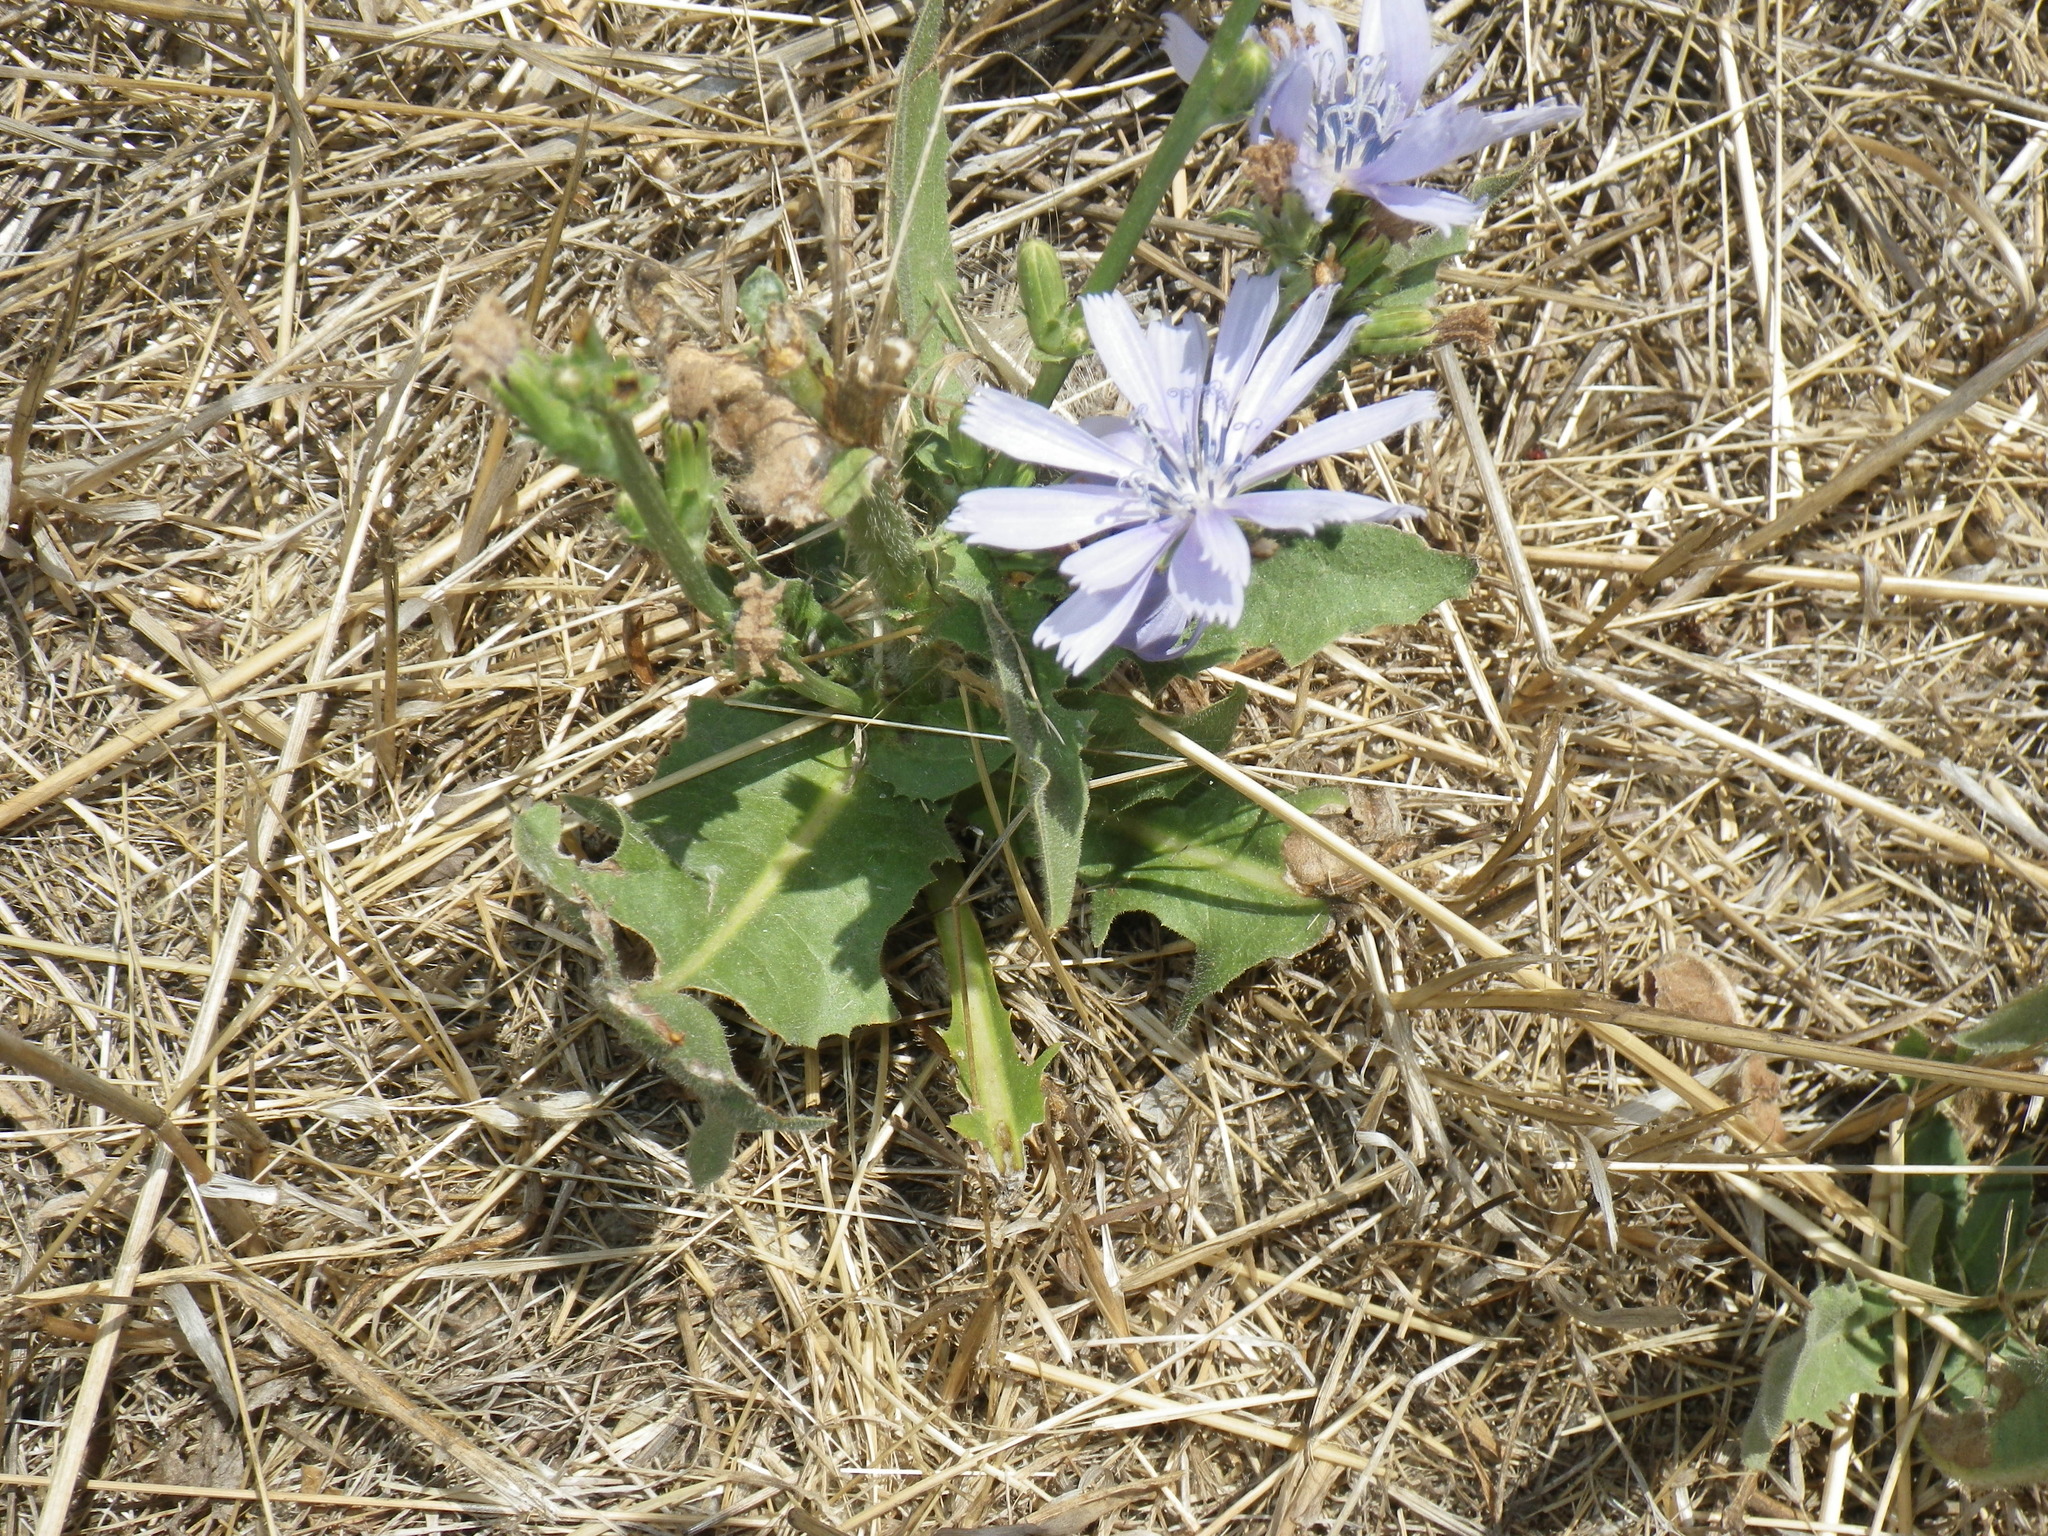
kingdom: Plantae
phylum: Tracheophyta
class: Magnoliopsida
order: Asterales
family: Asteraceae
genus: Cichorium
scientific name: Cichorium intybus
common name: Chicory
